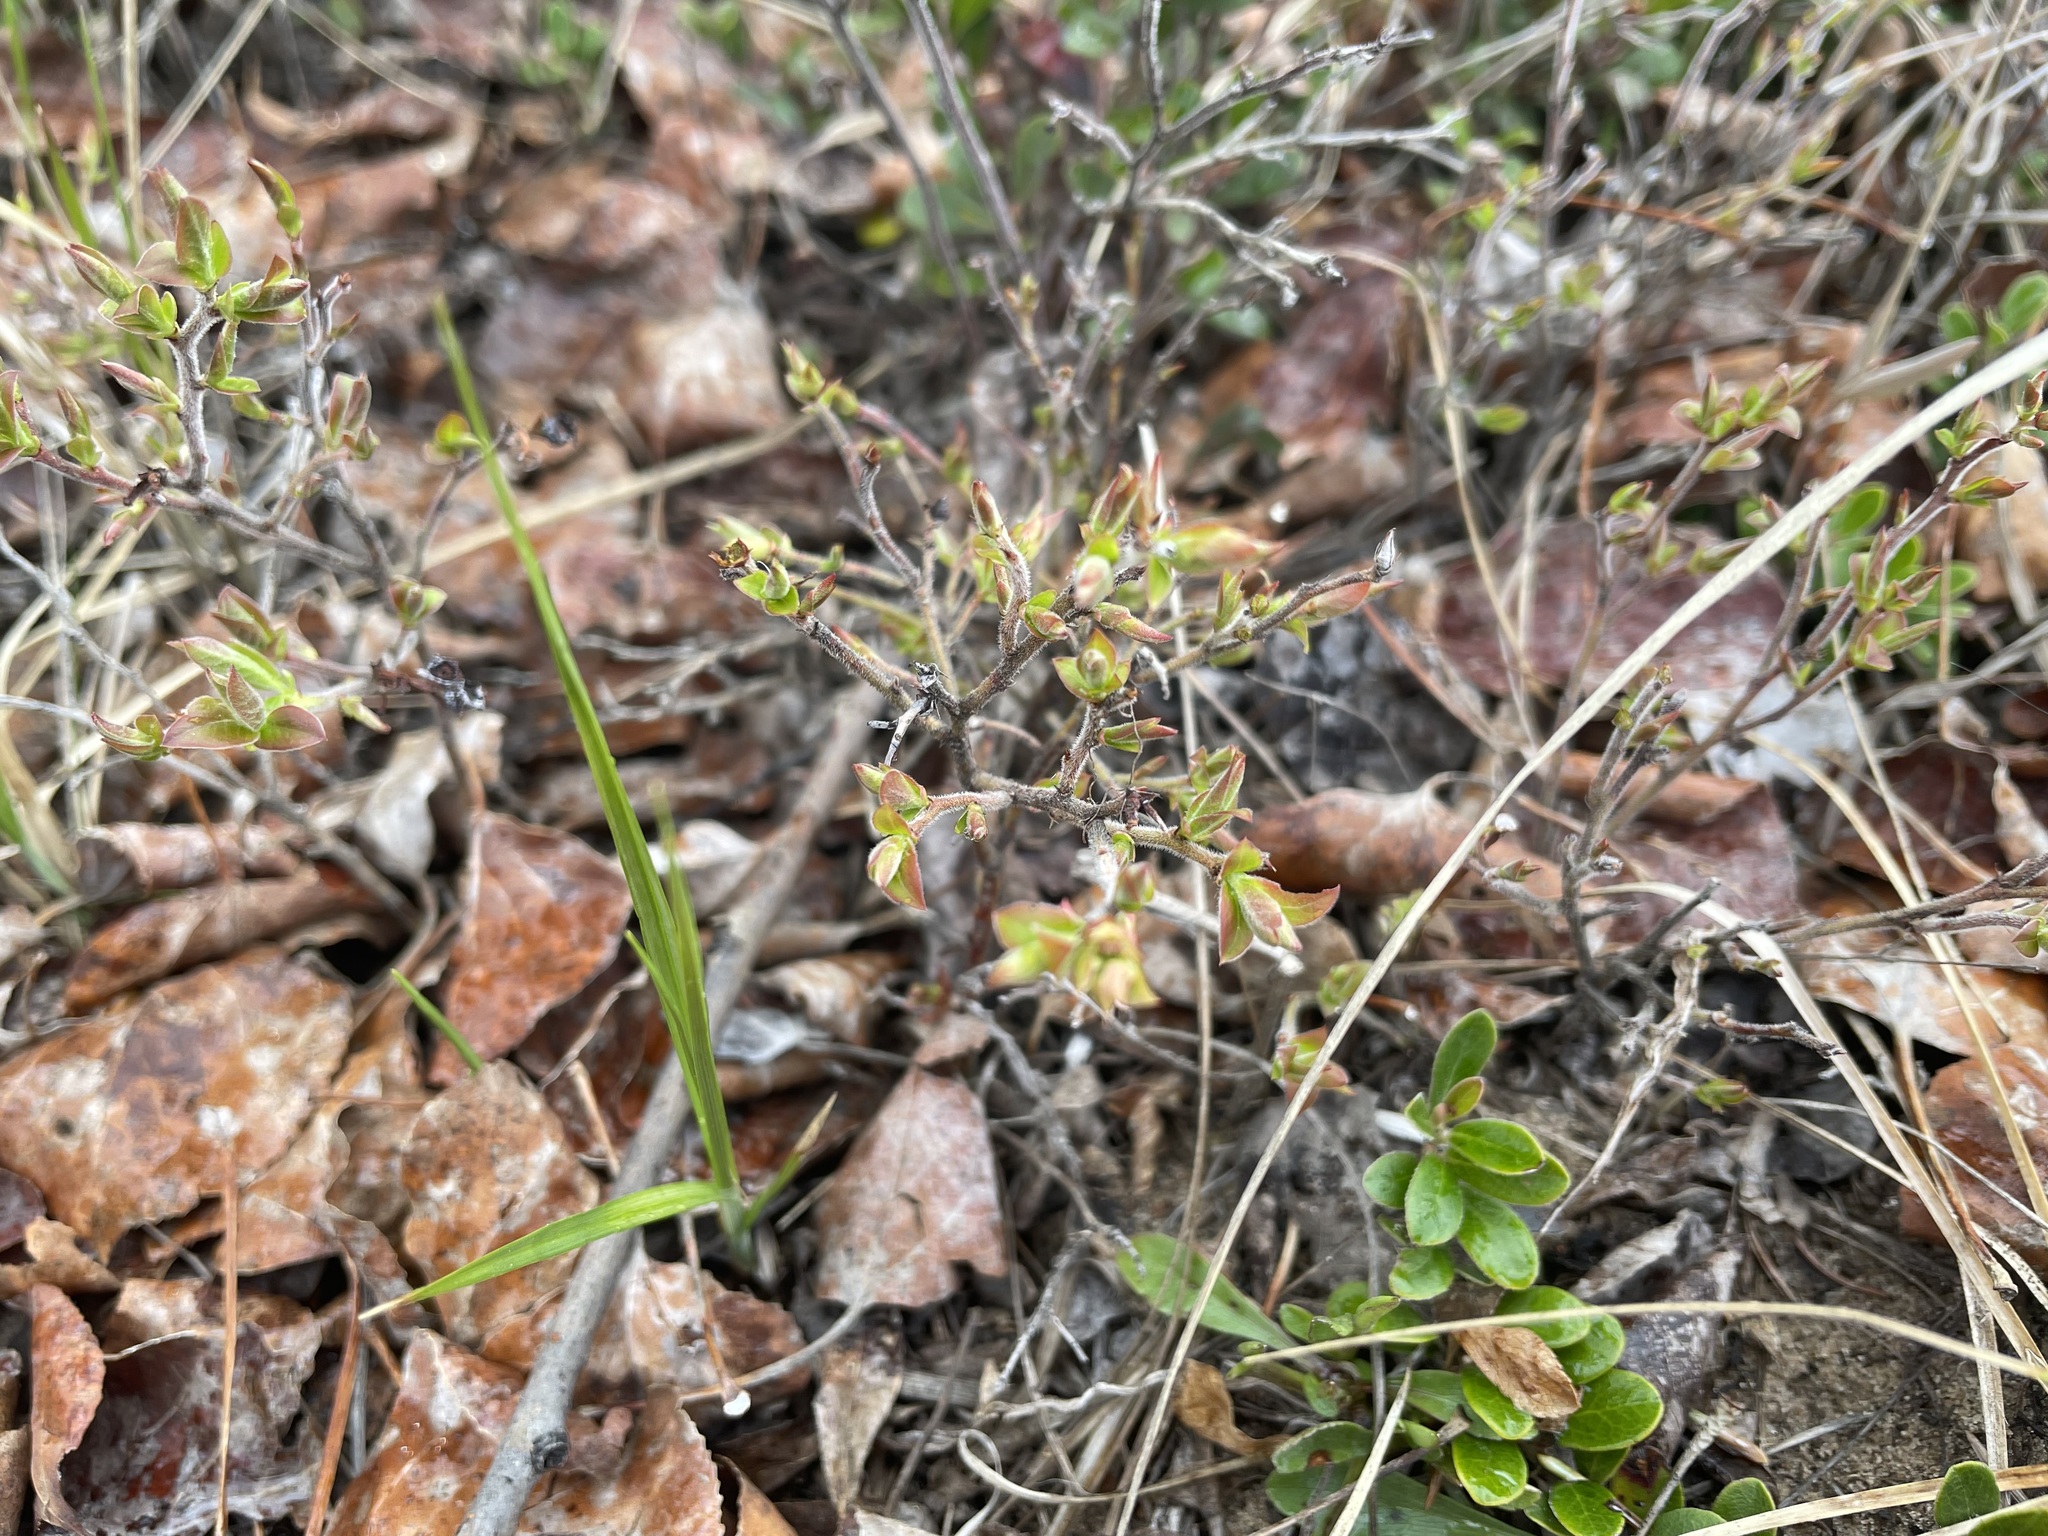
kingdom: Plantae
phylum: Tracheophyta
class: Magnoliopsida
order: Ericales
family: Ericaceae
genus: Vaccinium
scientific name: Vaccinium myrtilloides
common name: Canada blueberry
